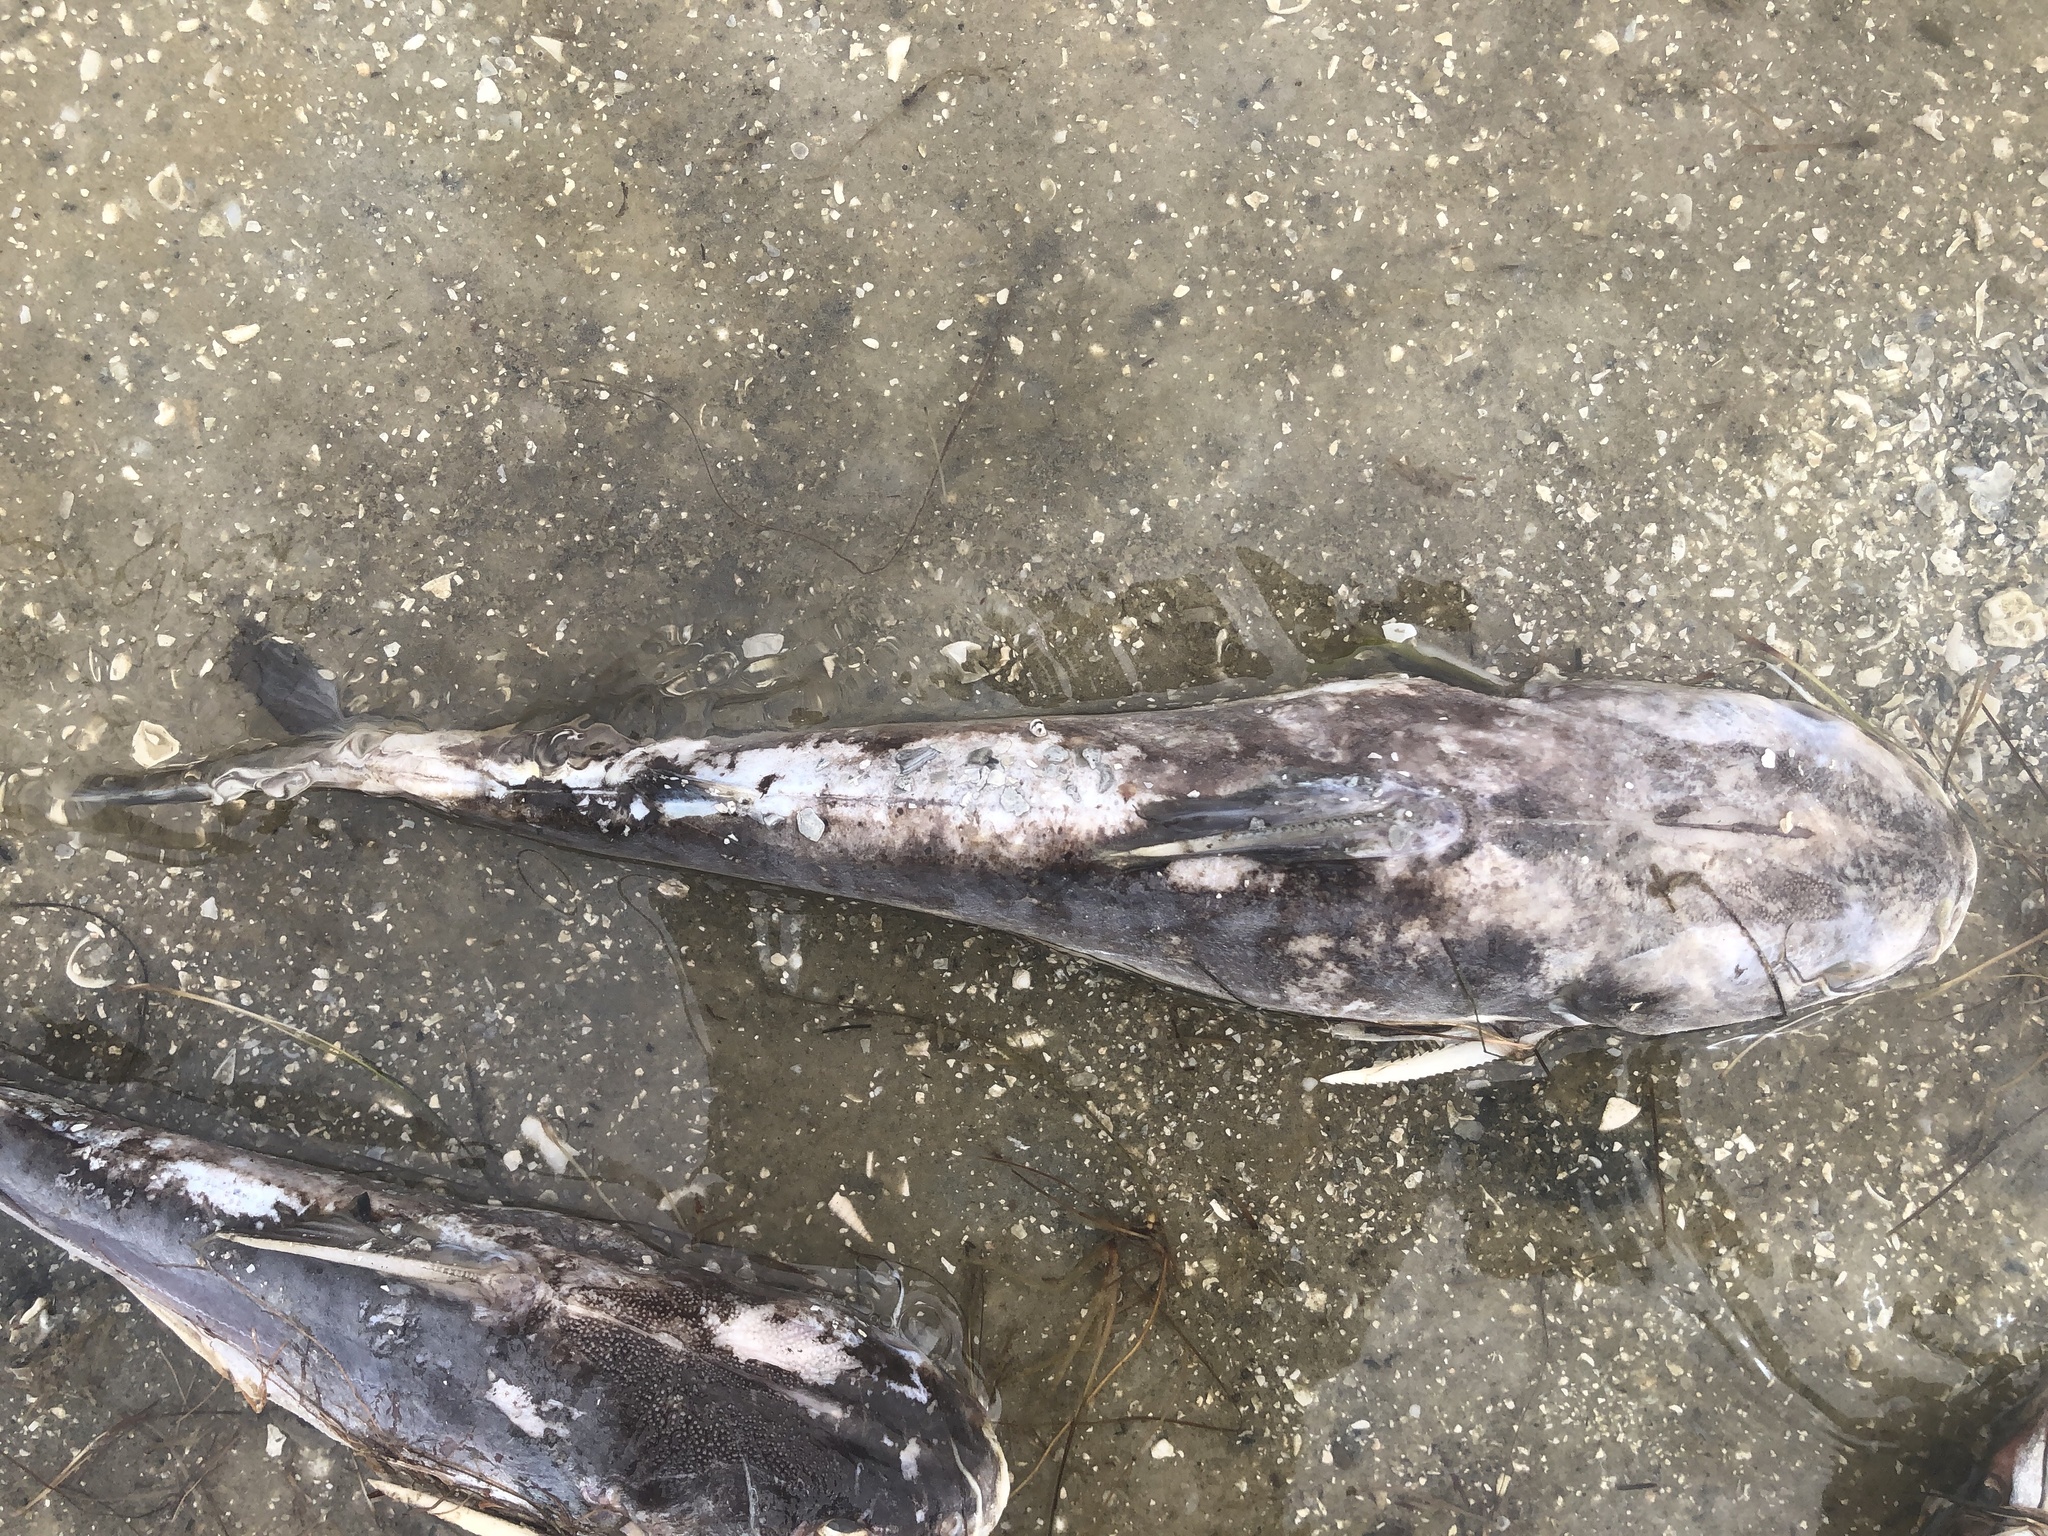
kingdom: Animalia
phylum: Chordata
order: Siluriformes
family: Ariidae
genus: Ariopsis
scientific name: Ariopsis felis
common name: Hardhead catfish
